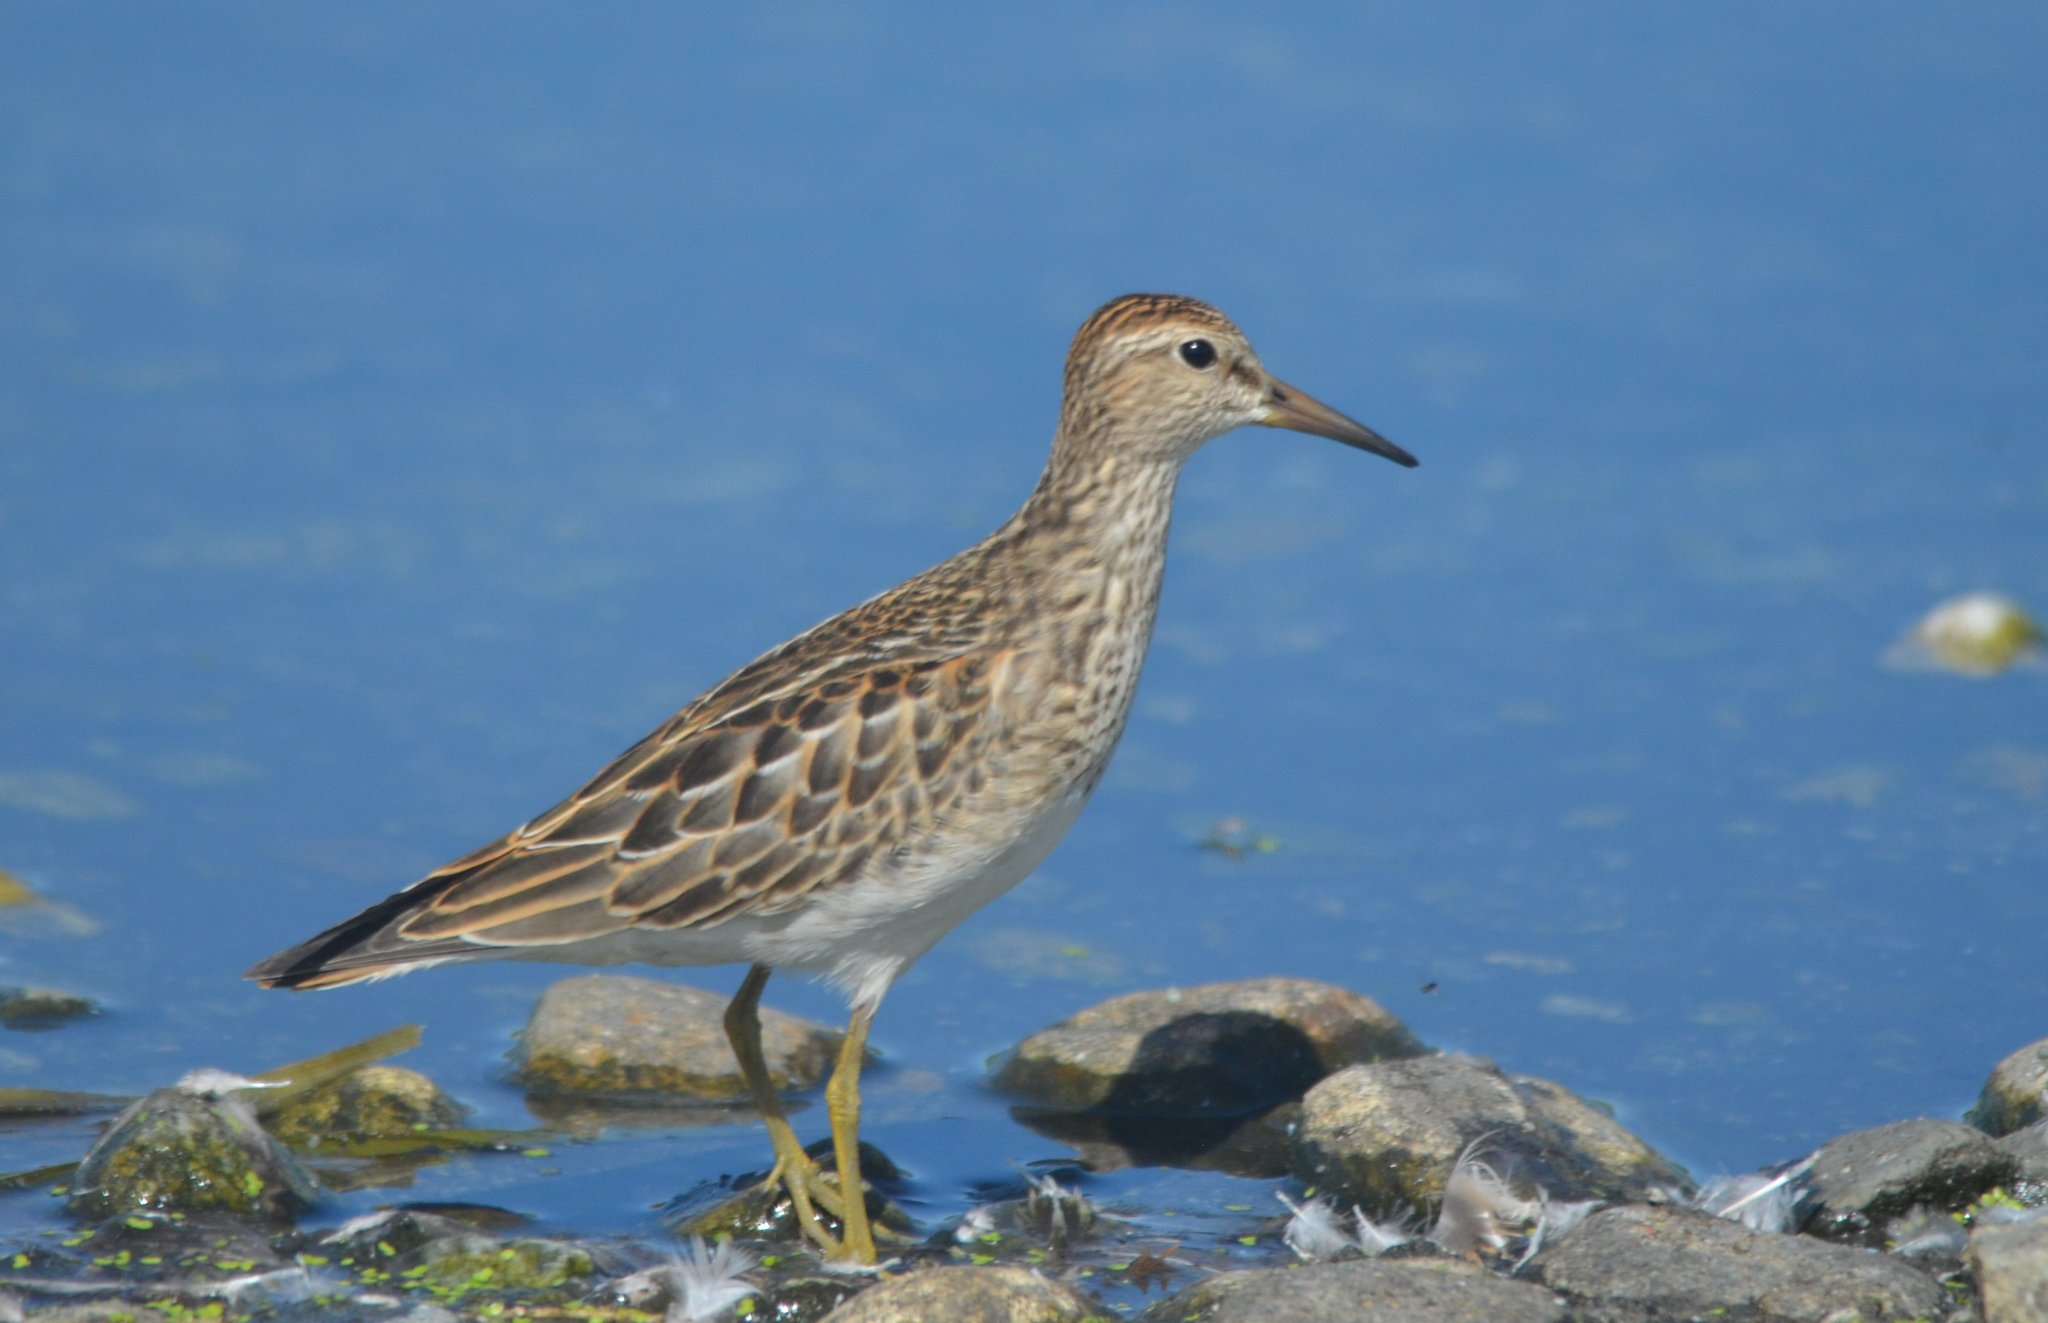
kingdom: Animalia
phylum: Chordata
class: Aves
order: Charadriiformes
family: Scolopacidae
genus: Calidris
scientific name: Calidris melanotos
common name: Pectoral sandpiper
